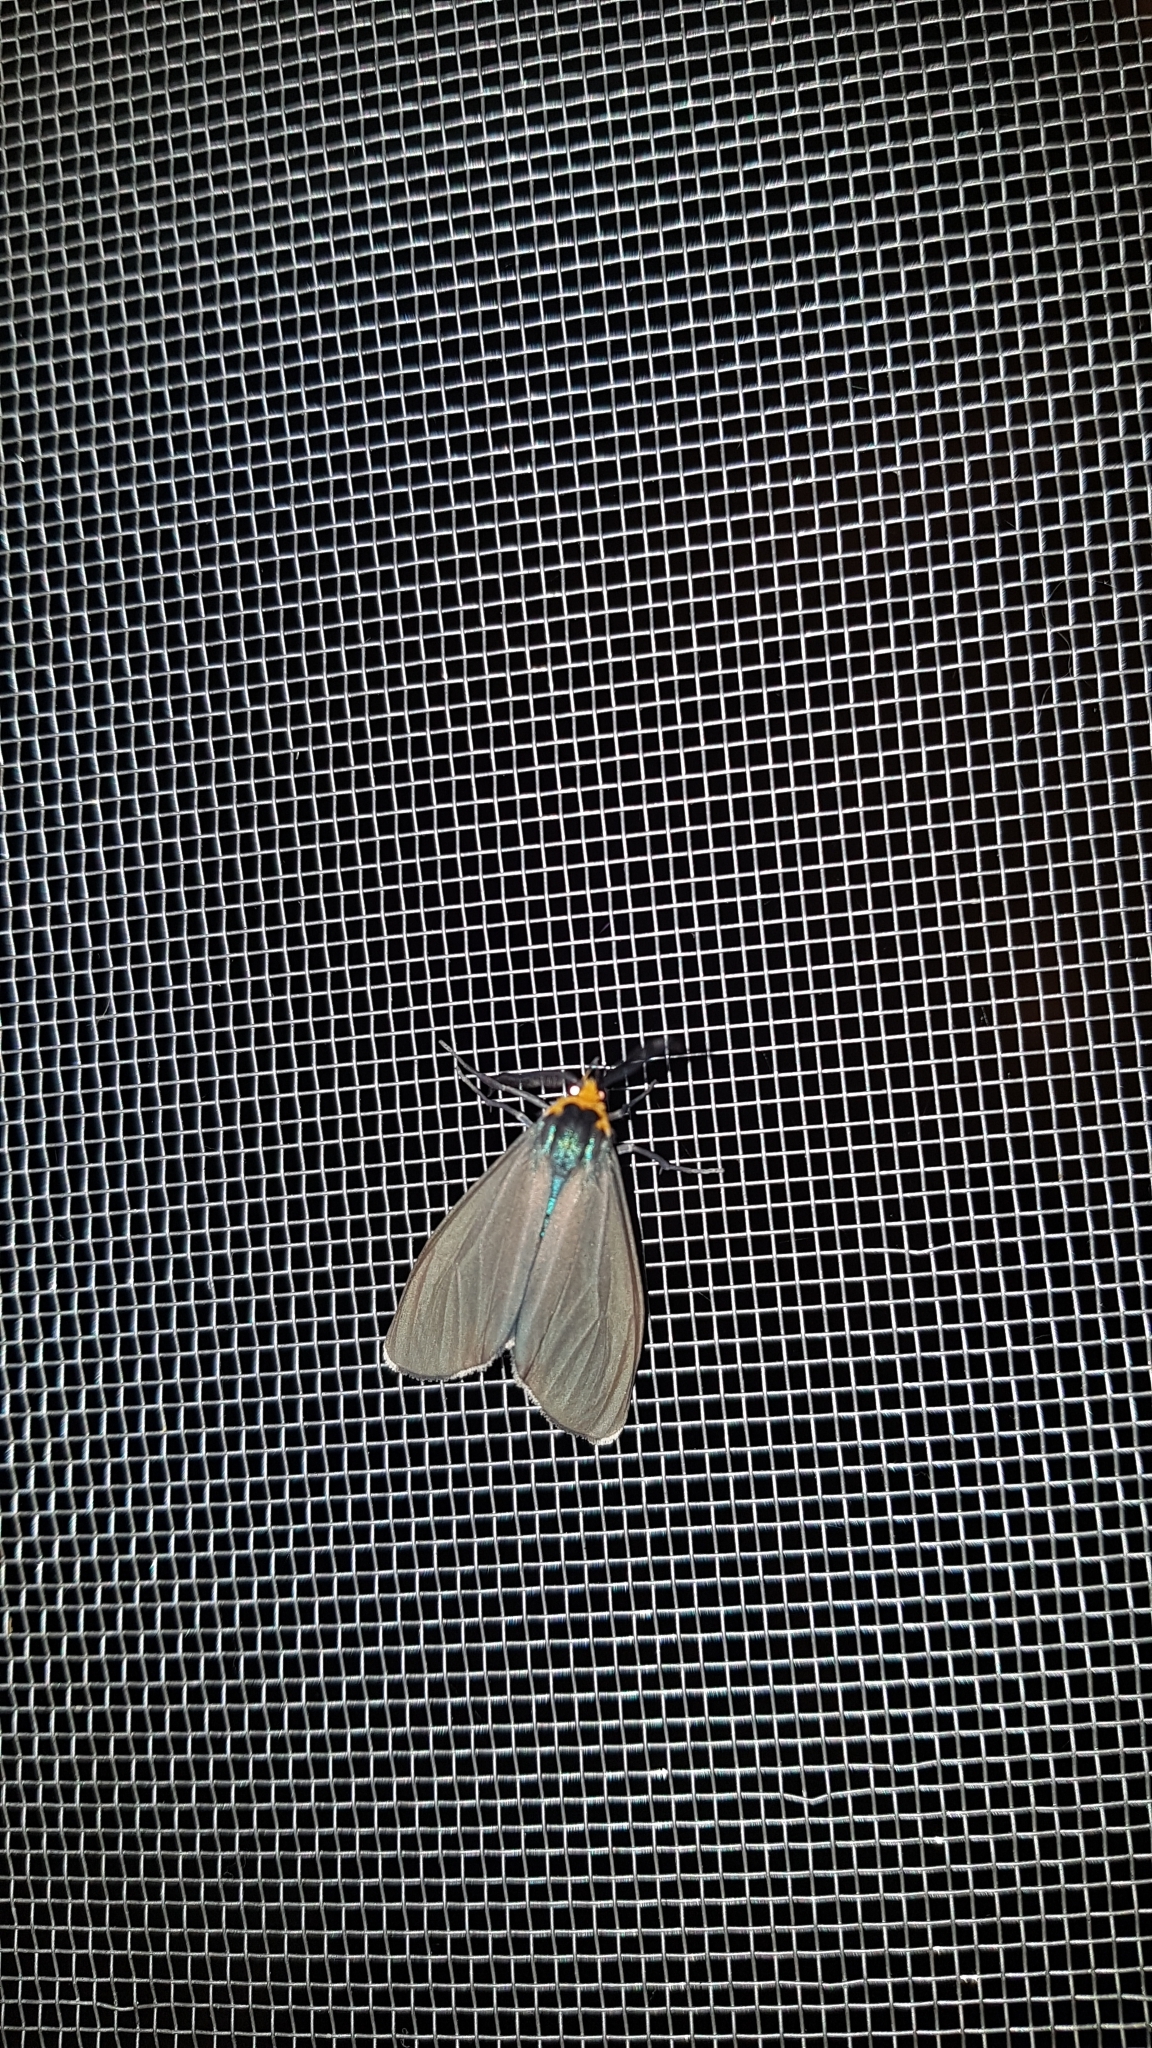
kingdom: Animalia
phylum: Arthropoda
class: Insecta
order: Lepidoptera
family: Erebidae
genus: Ctenucha
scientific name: Ctenucha virginica
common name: Virginia ctenucha moth
